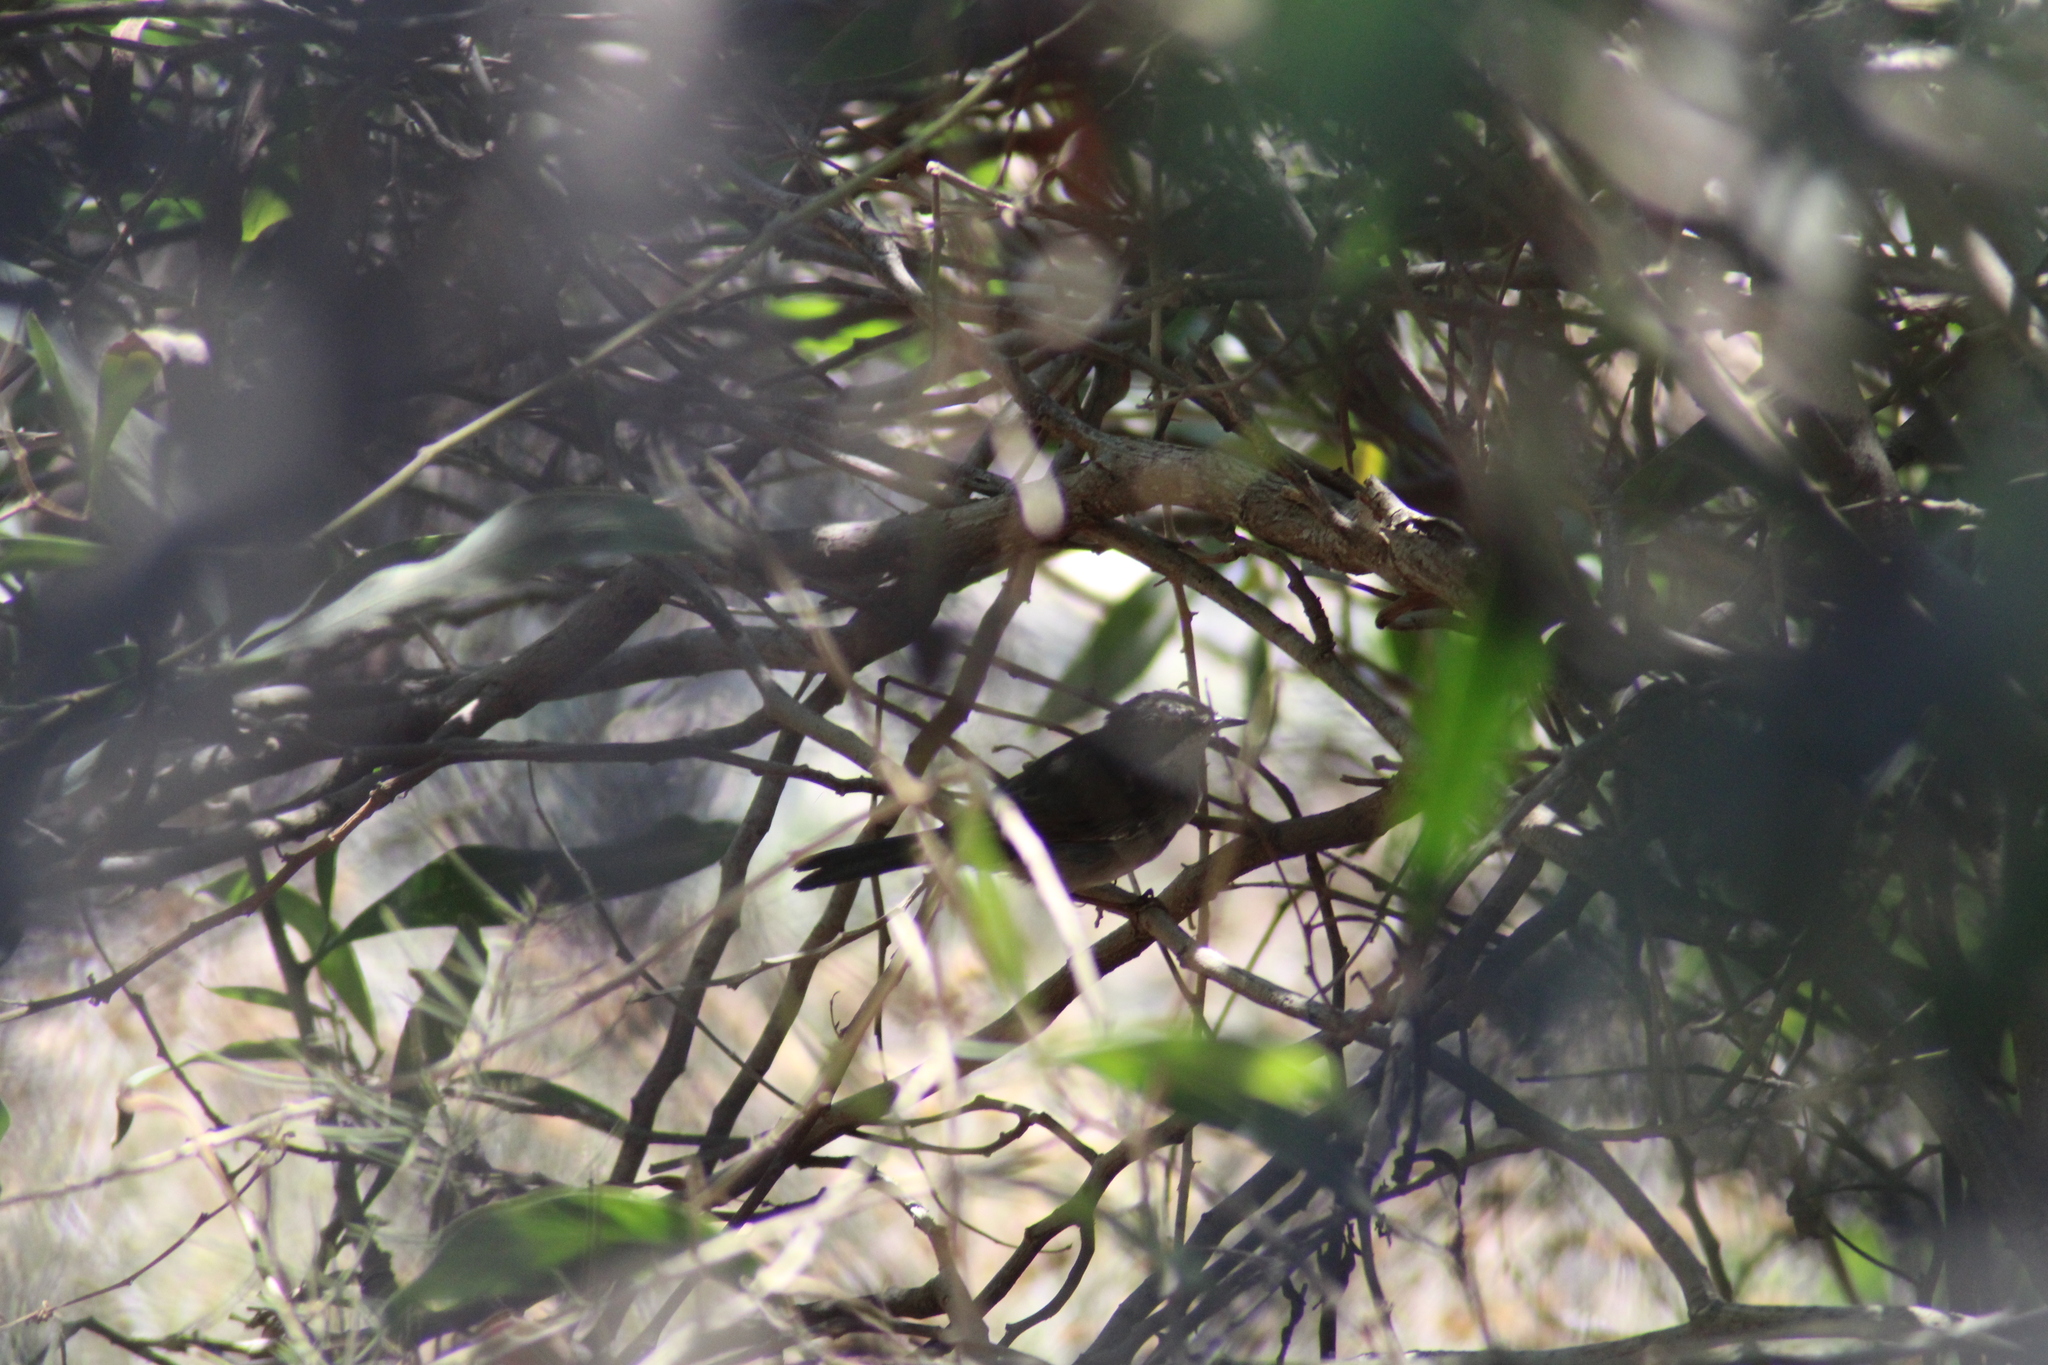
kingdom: Animalia
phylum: Chordata
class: Aves
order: Passeriformes
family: Sylviidae
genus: Curruca
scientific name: Curruca melanocephala
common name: Sardinian warbler
